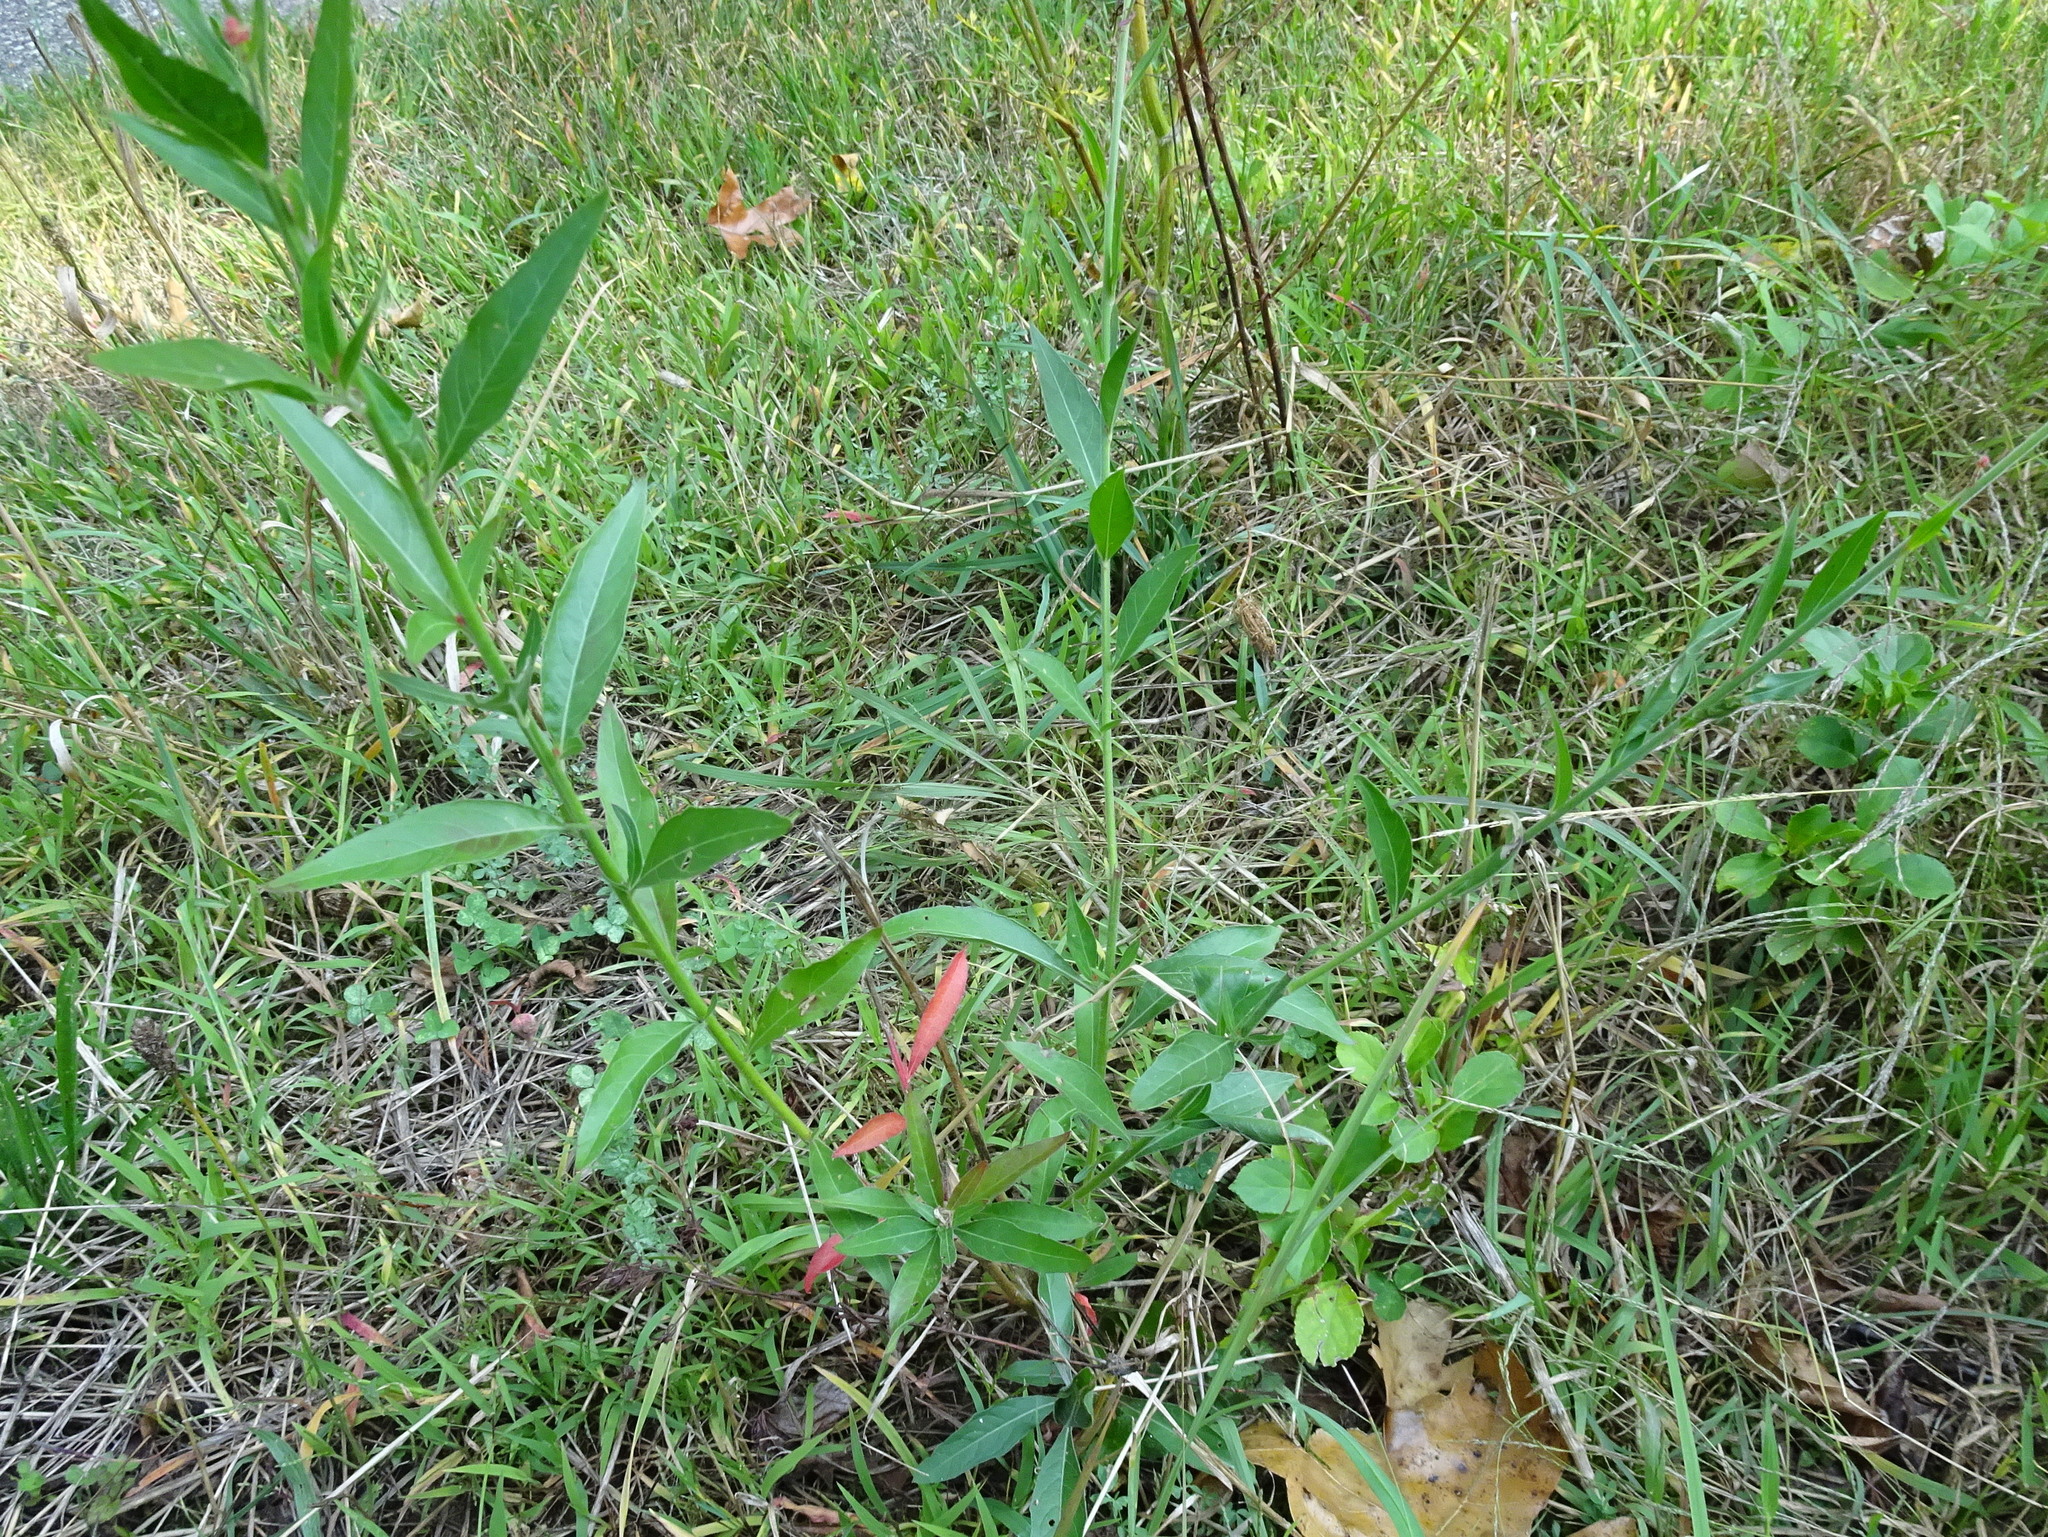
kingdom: Plantae
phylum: Tracheophyta
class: Magnoliopsida
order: Myrtales
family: Onagraceae
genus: Oenothera
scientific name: Oenothera gaura
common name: Biennial beeblossom
